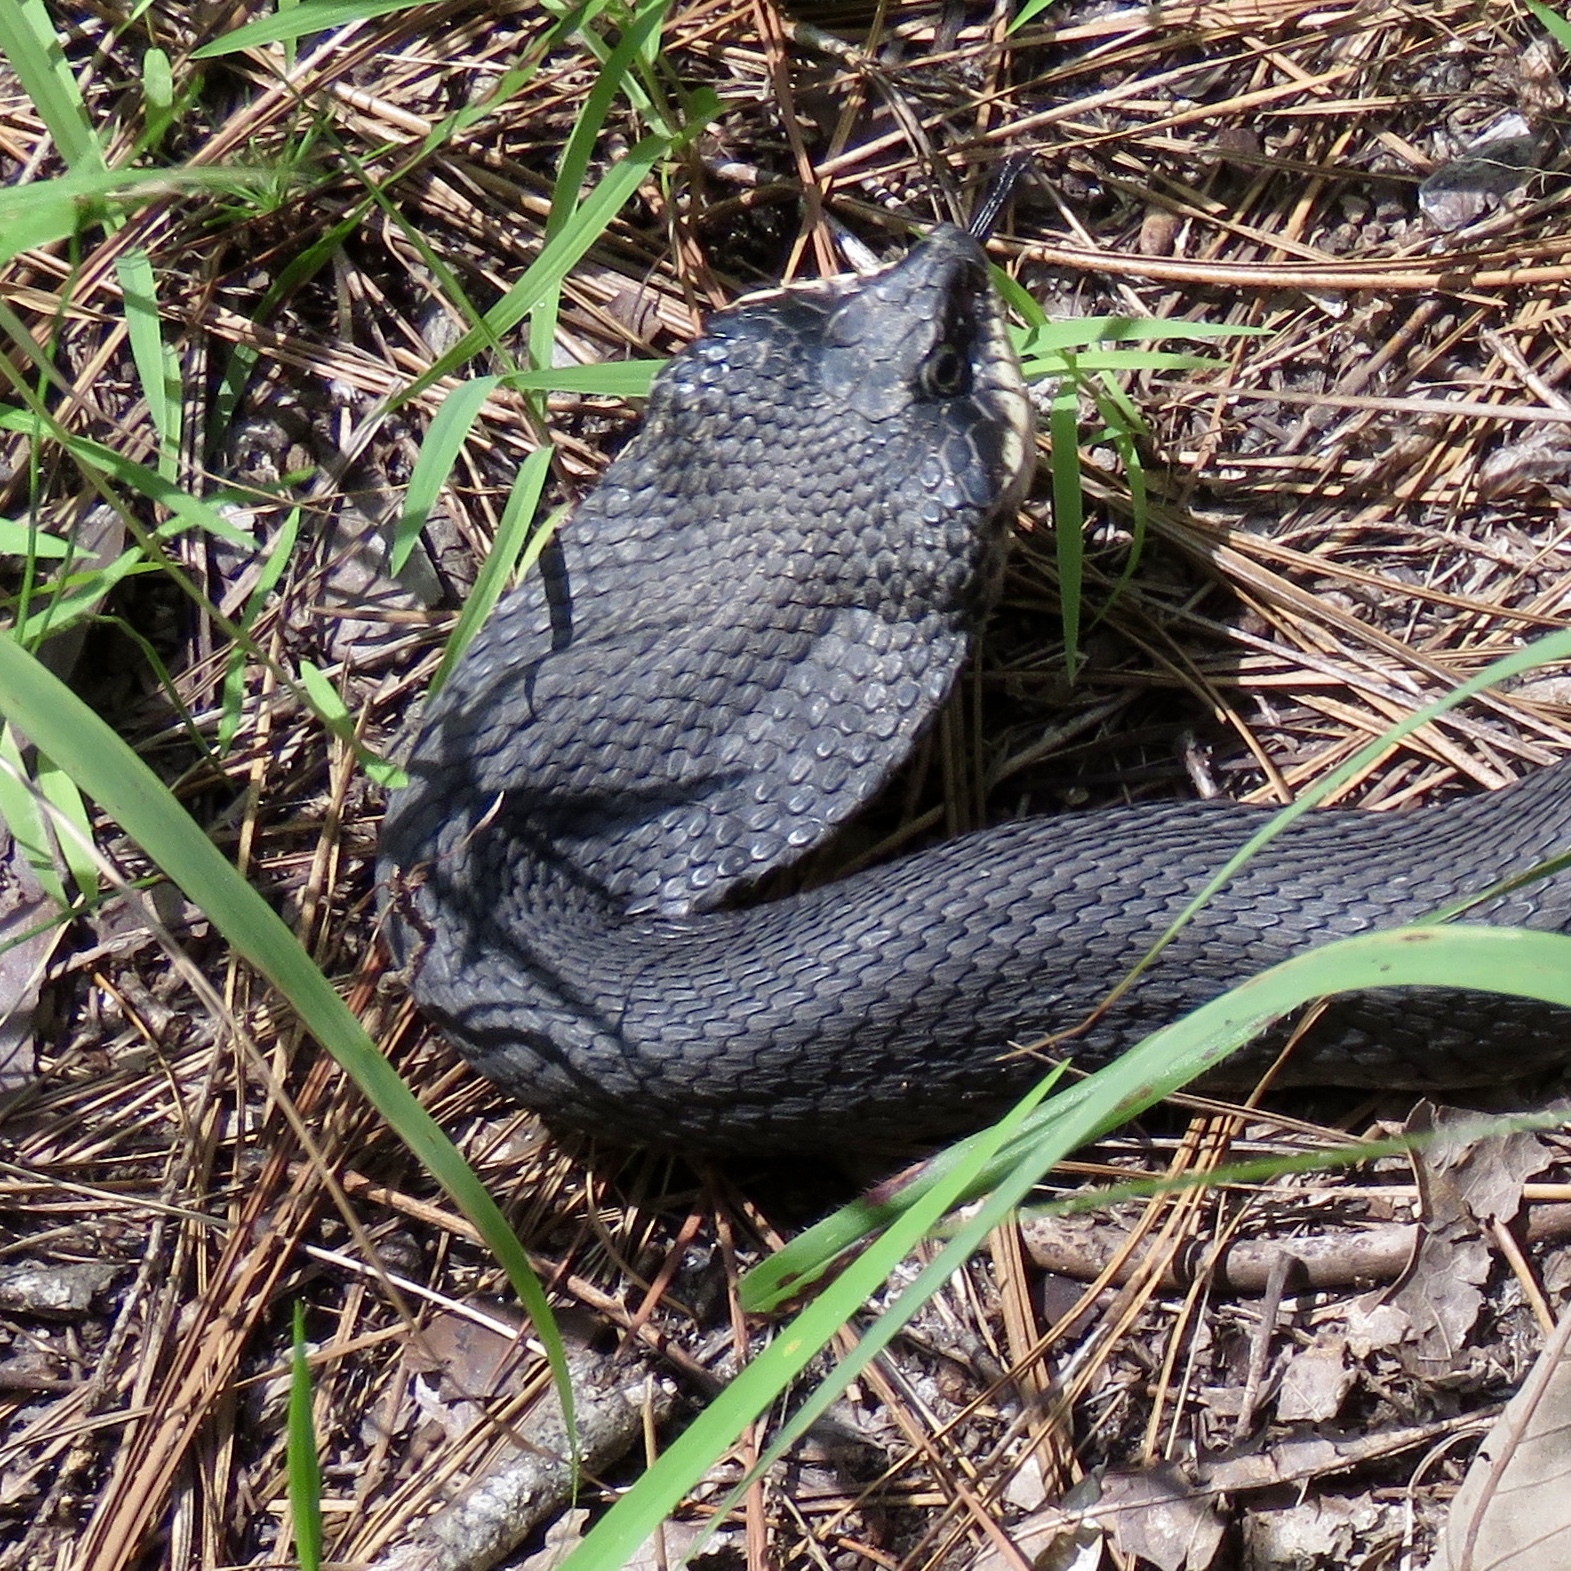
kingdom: Animalia
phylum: Chordata
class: Squamata
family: Colubridae
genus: Heterodon
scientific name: Heterodon platirhinos
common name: Eastern hognose snake
